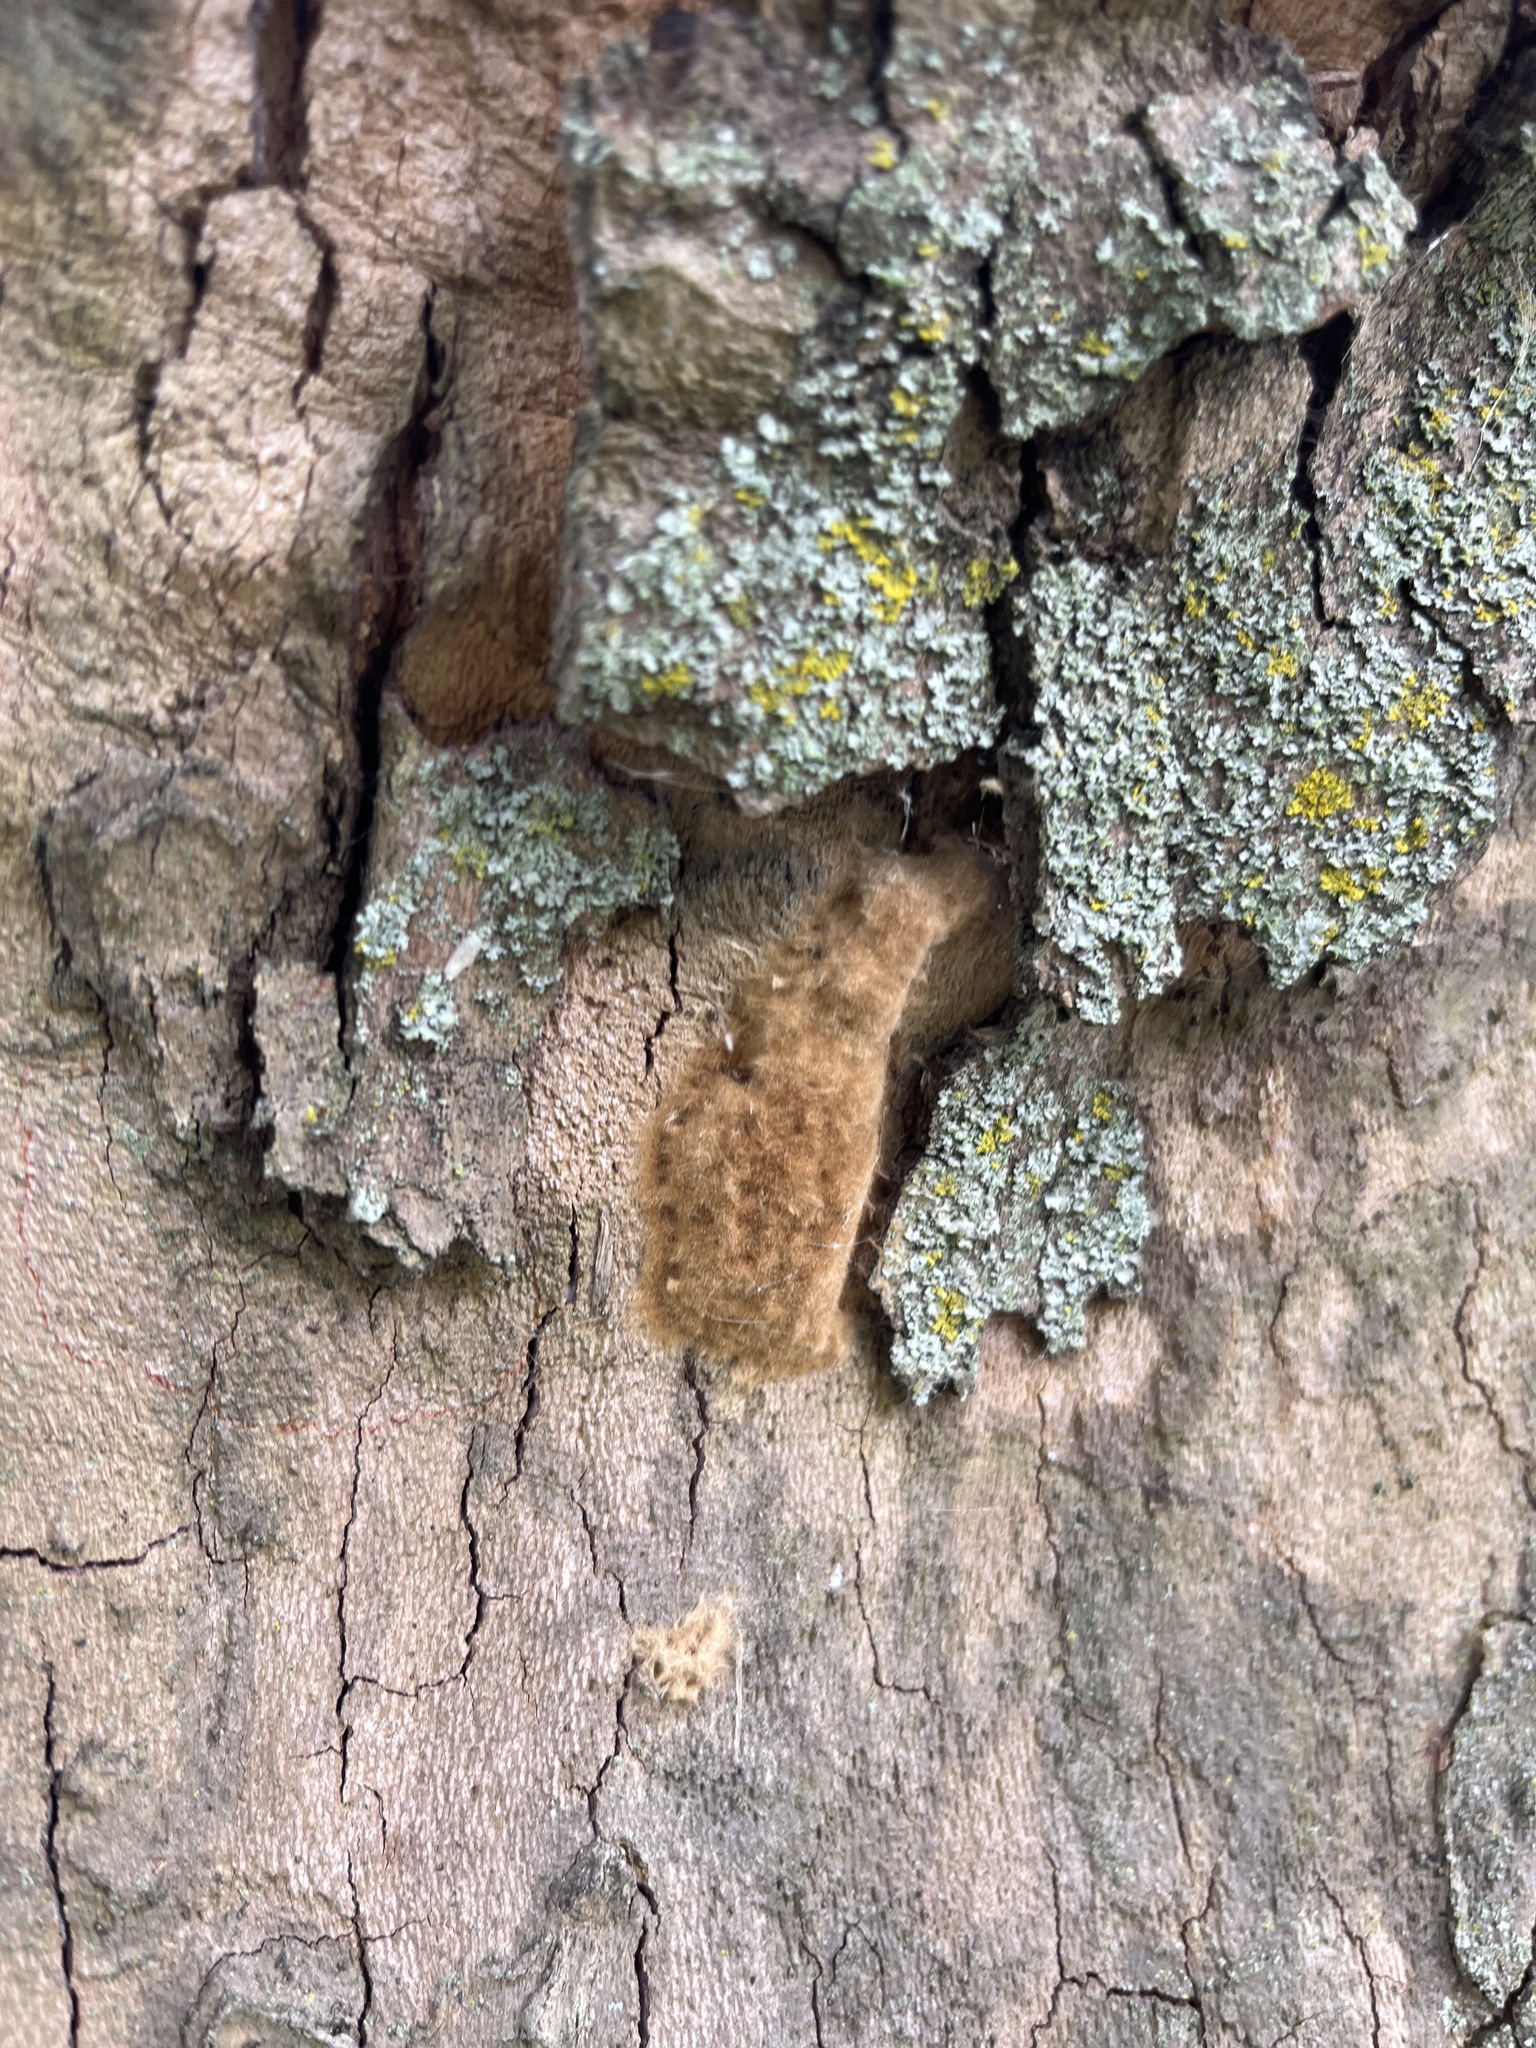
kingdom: Animalia
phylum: Arthropoda
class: Insecta
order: Lepidoptera
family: Erebidae
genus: Lymantria
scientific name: Lymantria dispar
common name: Gypsy moth
